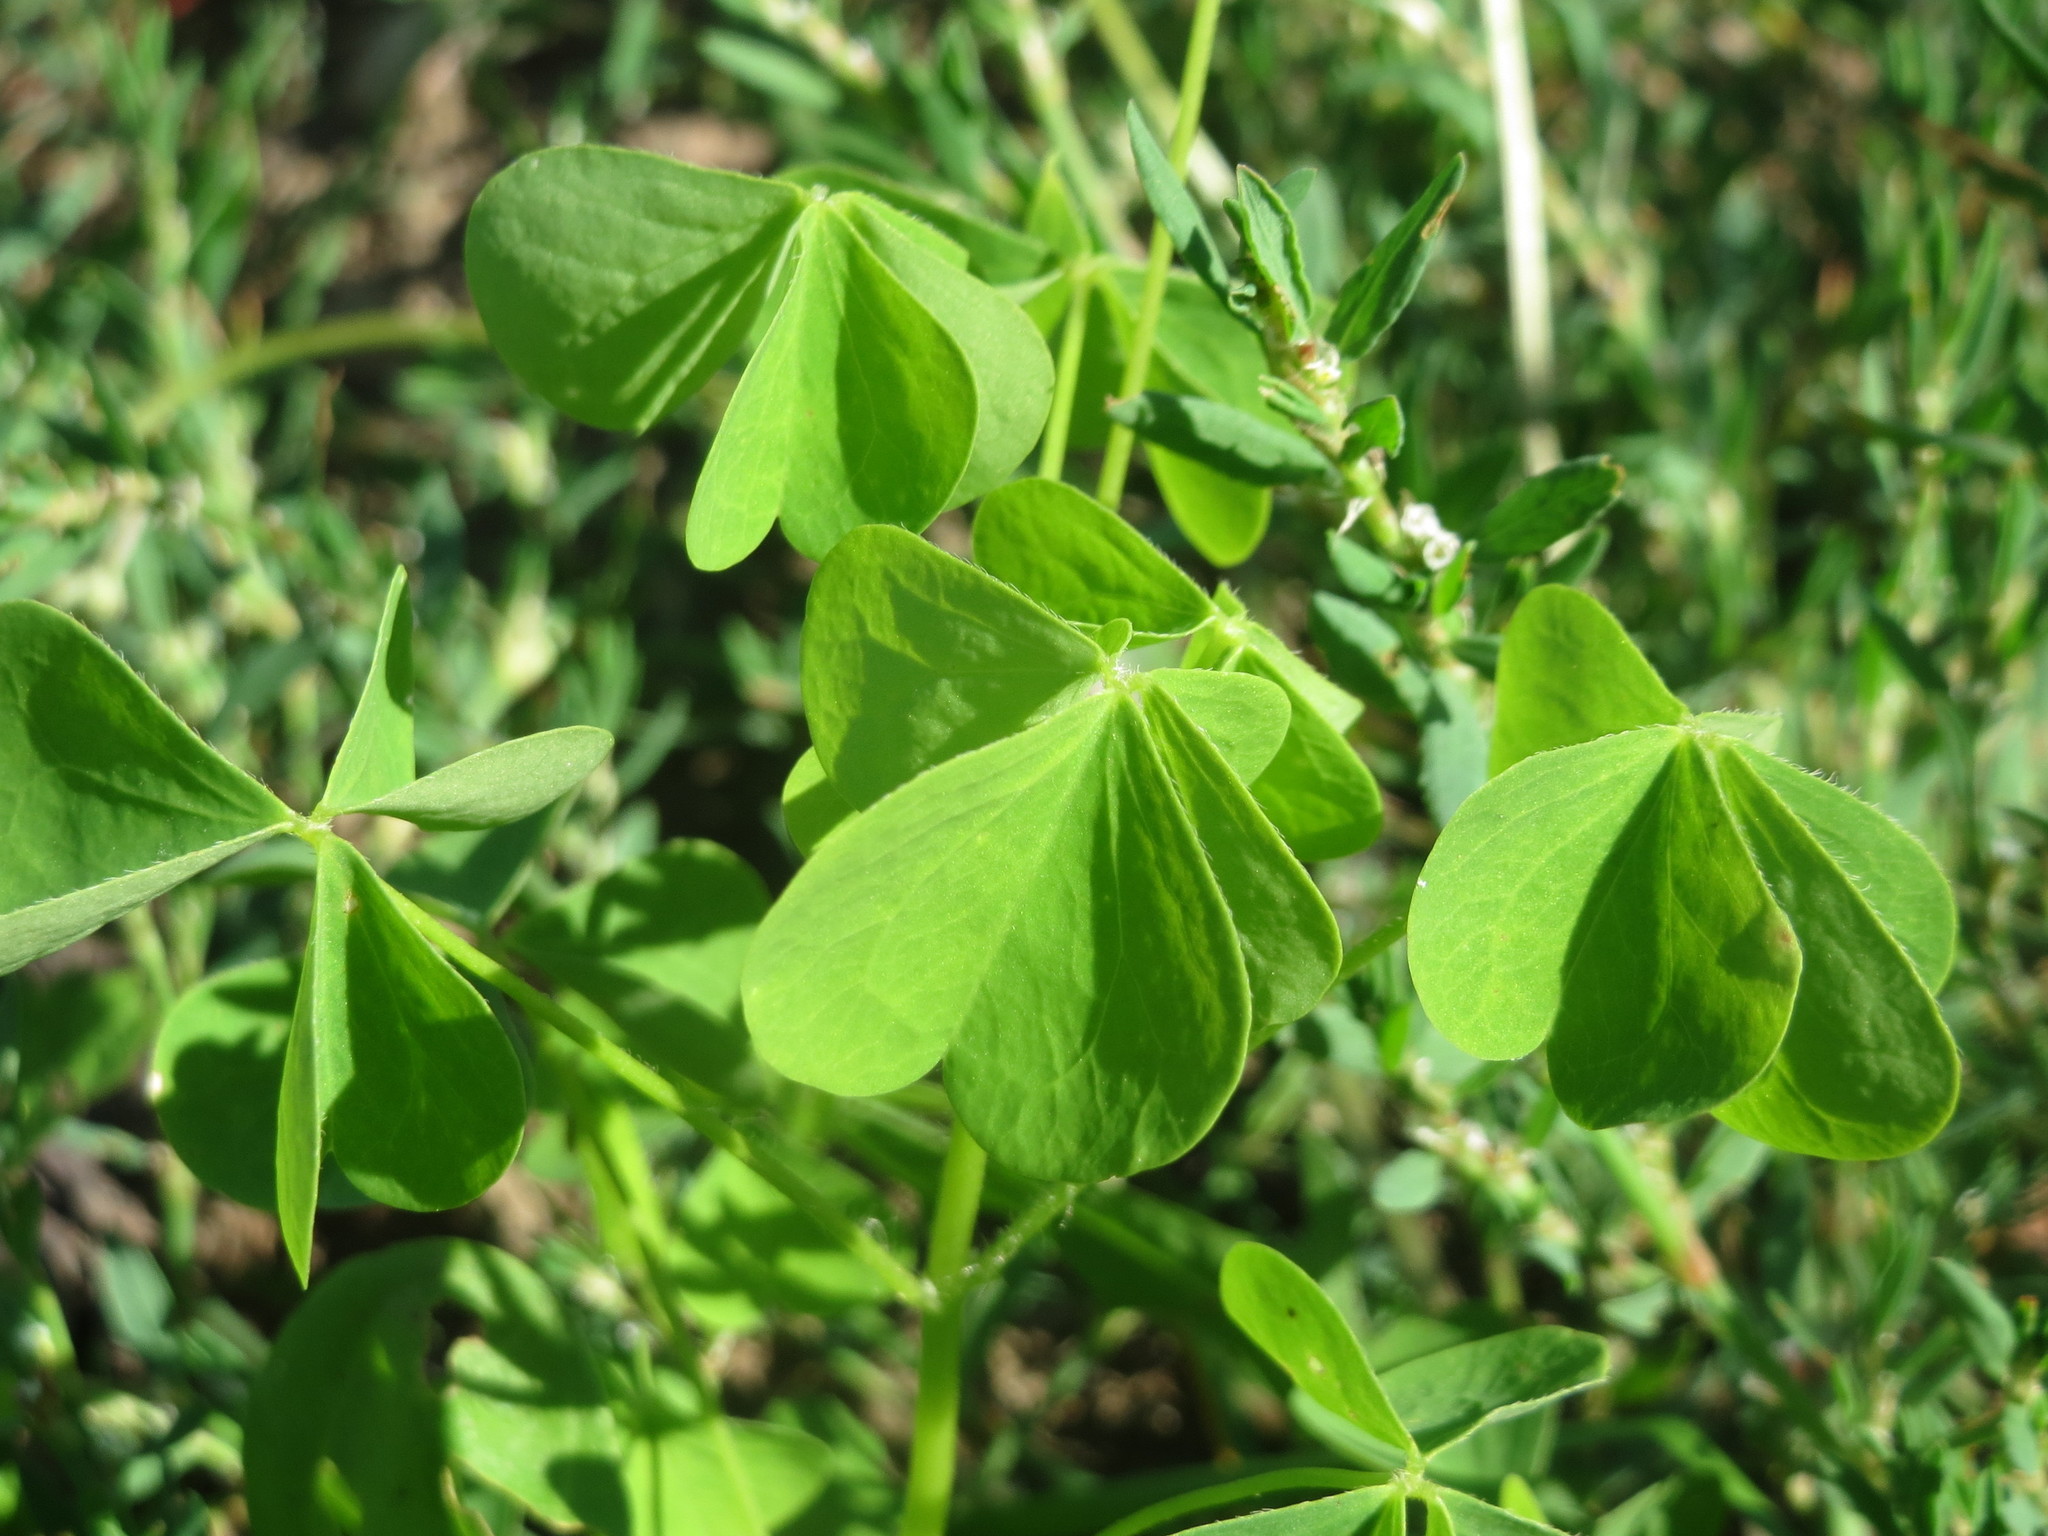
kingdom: Plantae
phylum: Tracheophyta
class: Magnoliopsida
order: Oxalidales
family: Oxalidaceae
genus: Oxalis
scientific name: Oxalis stricta
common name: Upright yellow-sorrel
